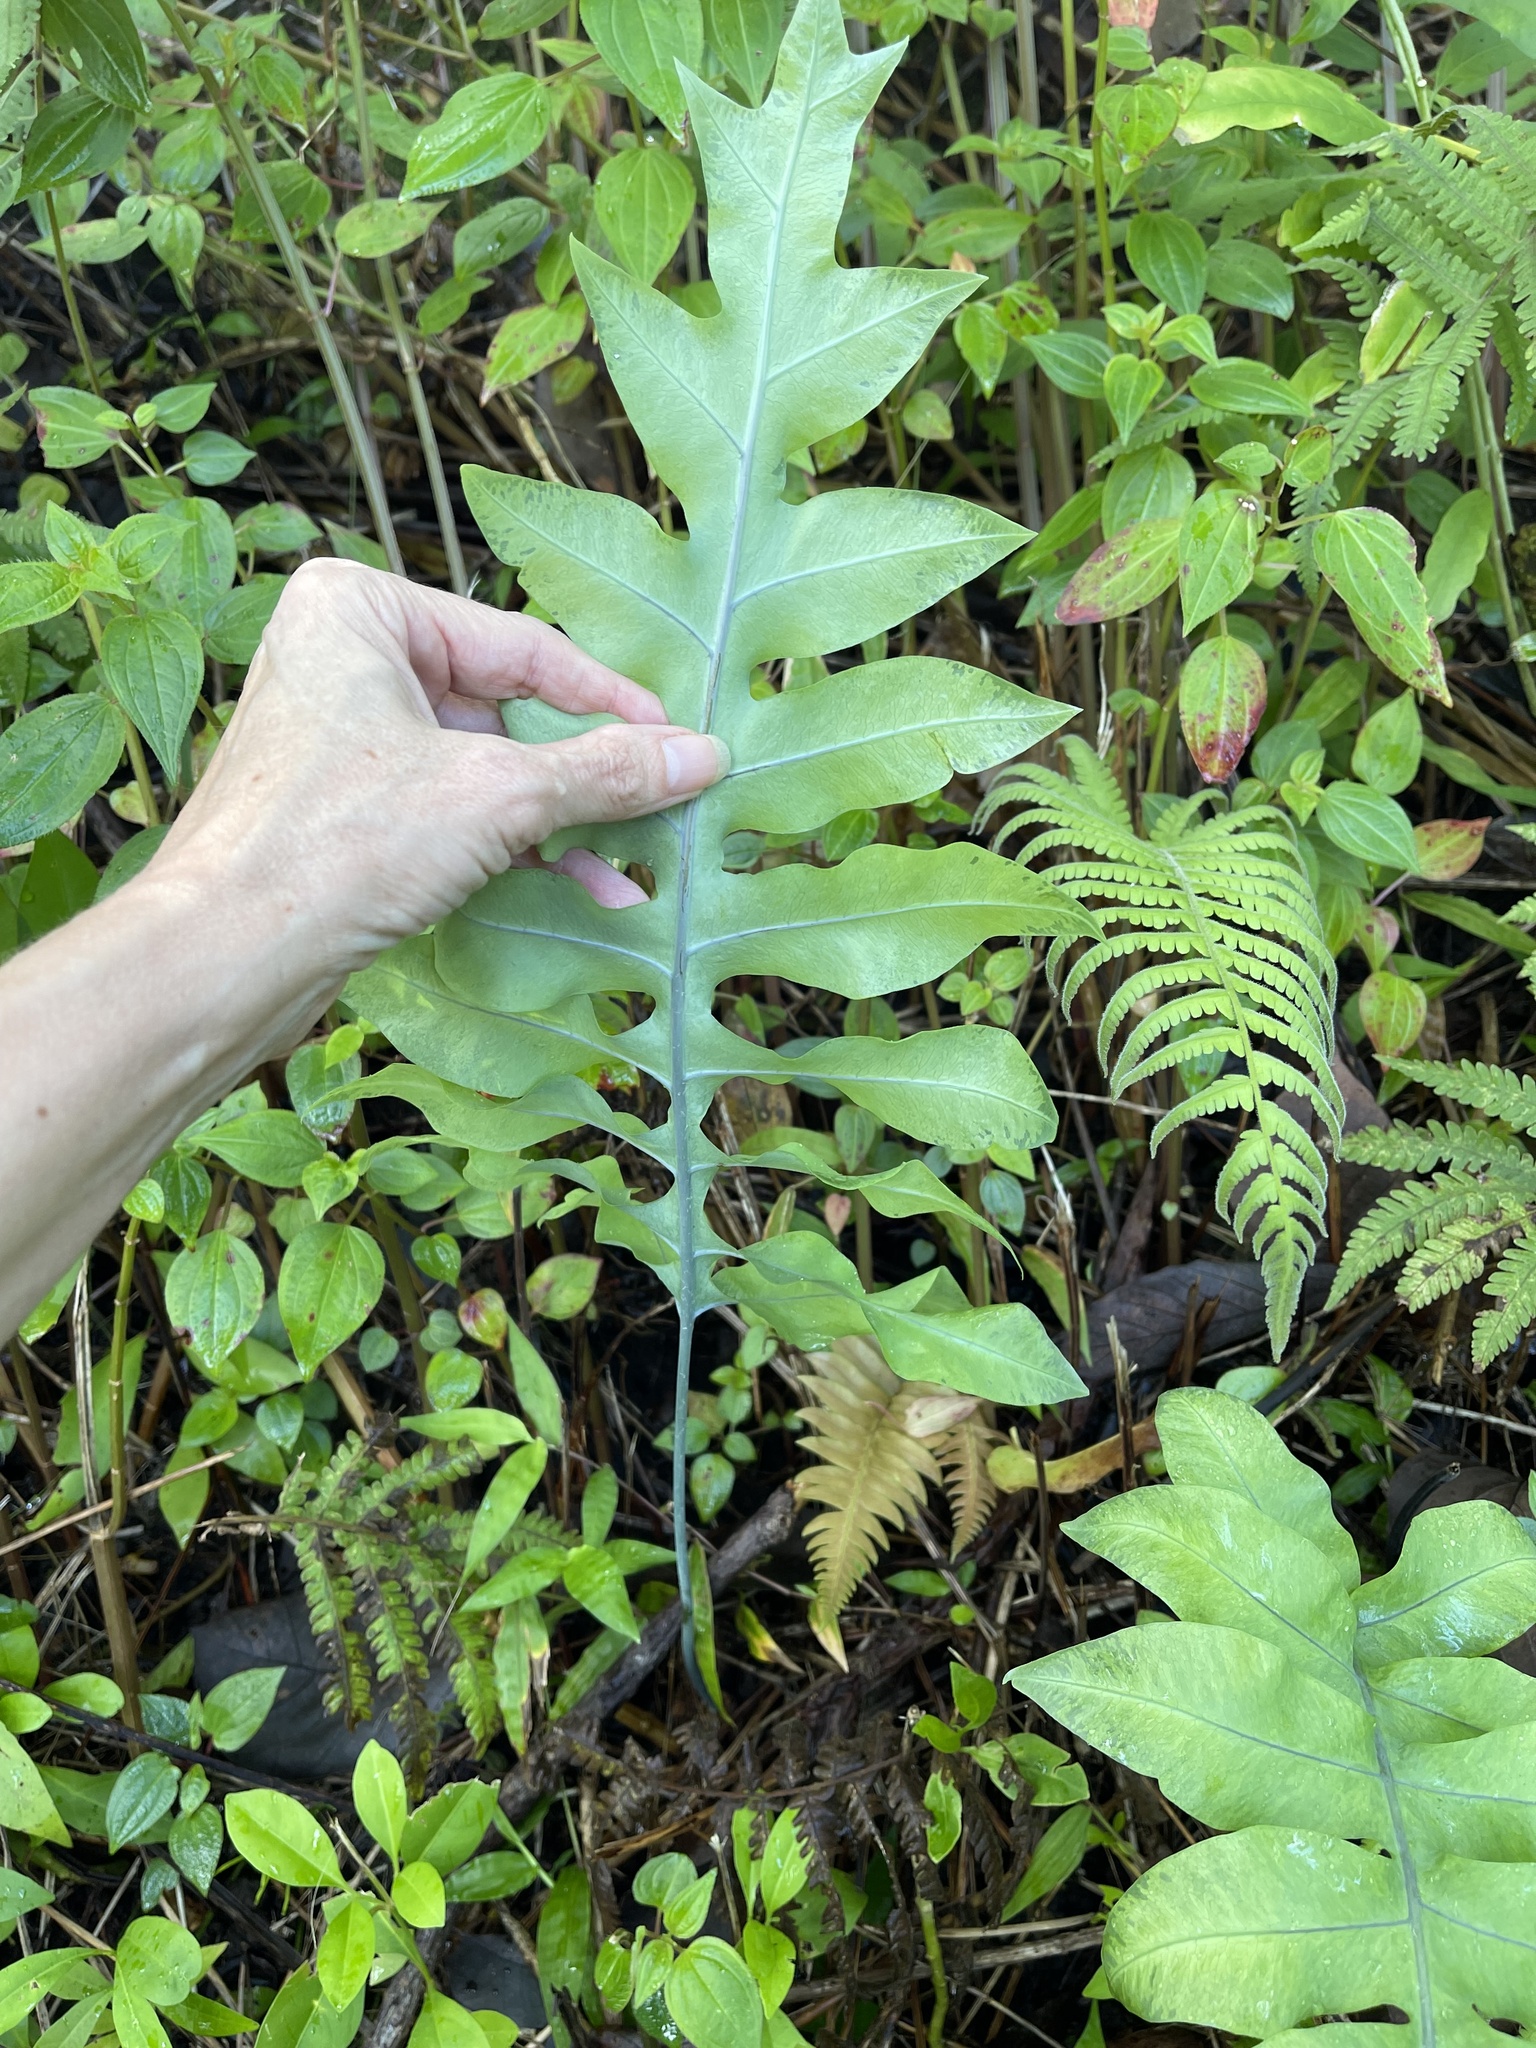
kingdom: Plantae
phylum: Tracheophyta
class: Polypodiopsida
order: Polypodiales
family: Polypodiaceae
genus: Phlebodium
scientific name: Phlebodium aureum
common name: Gold-foot fern
